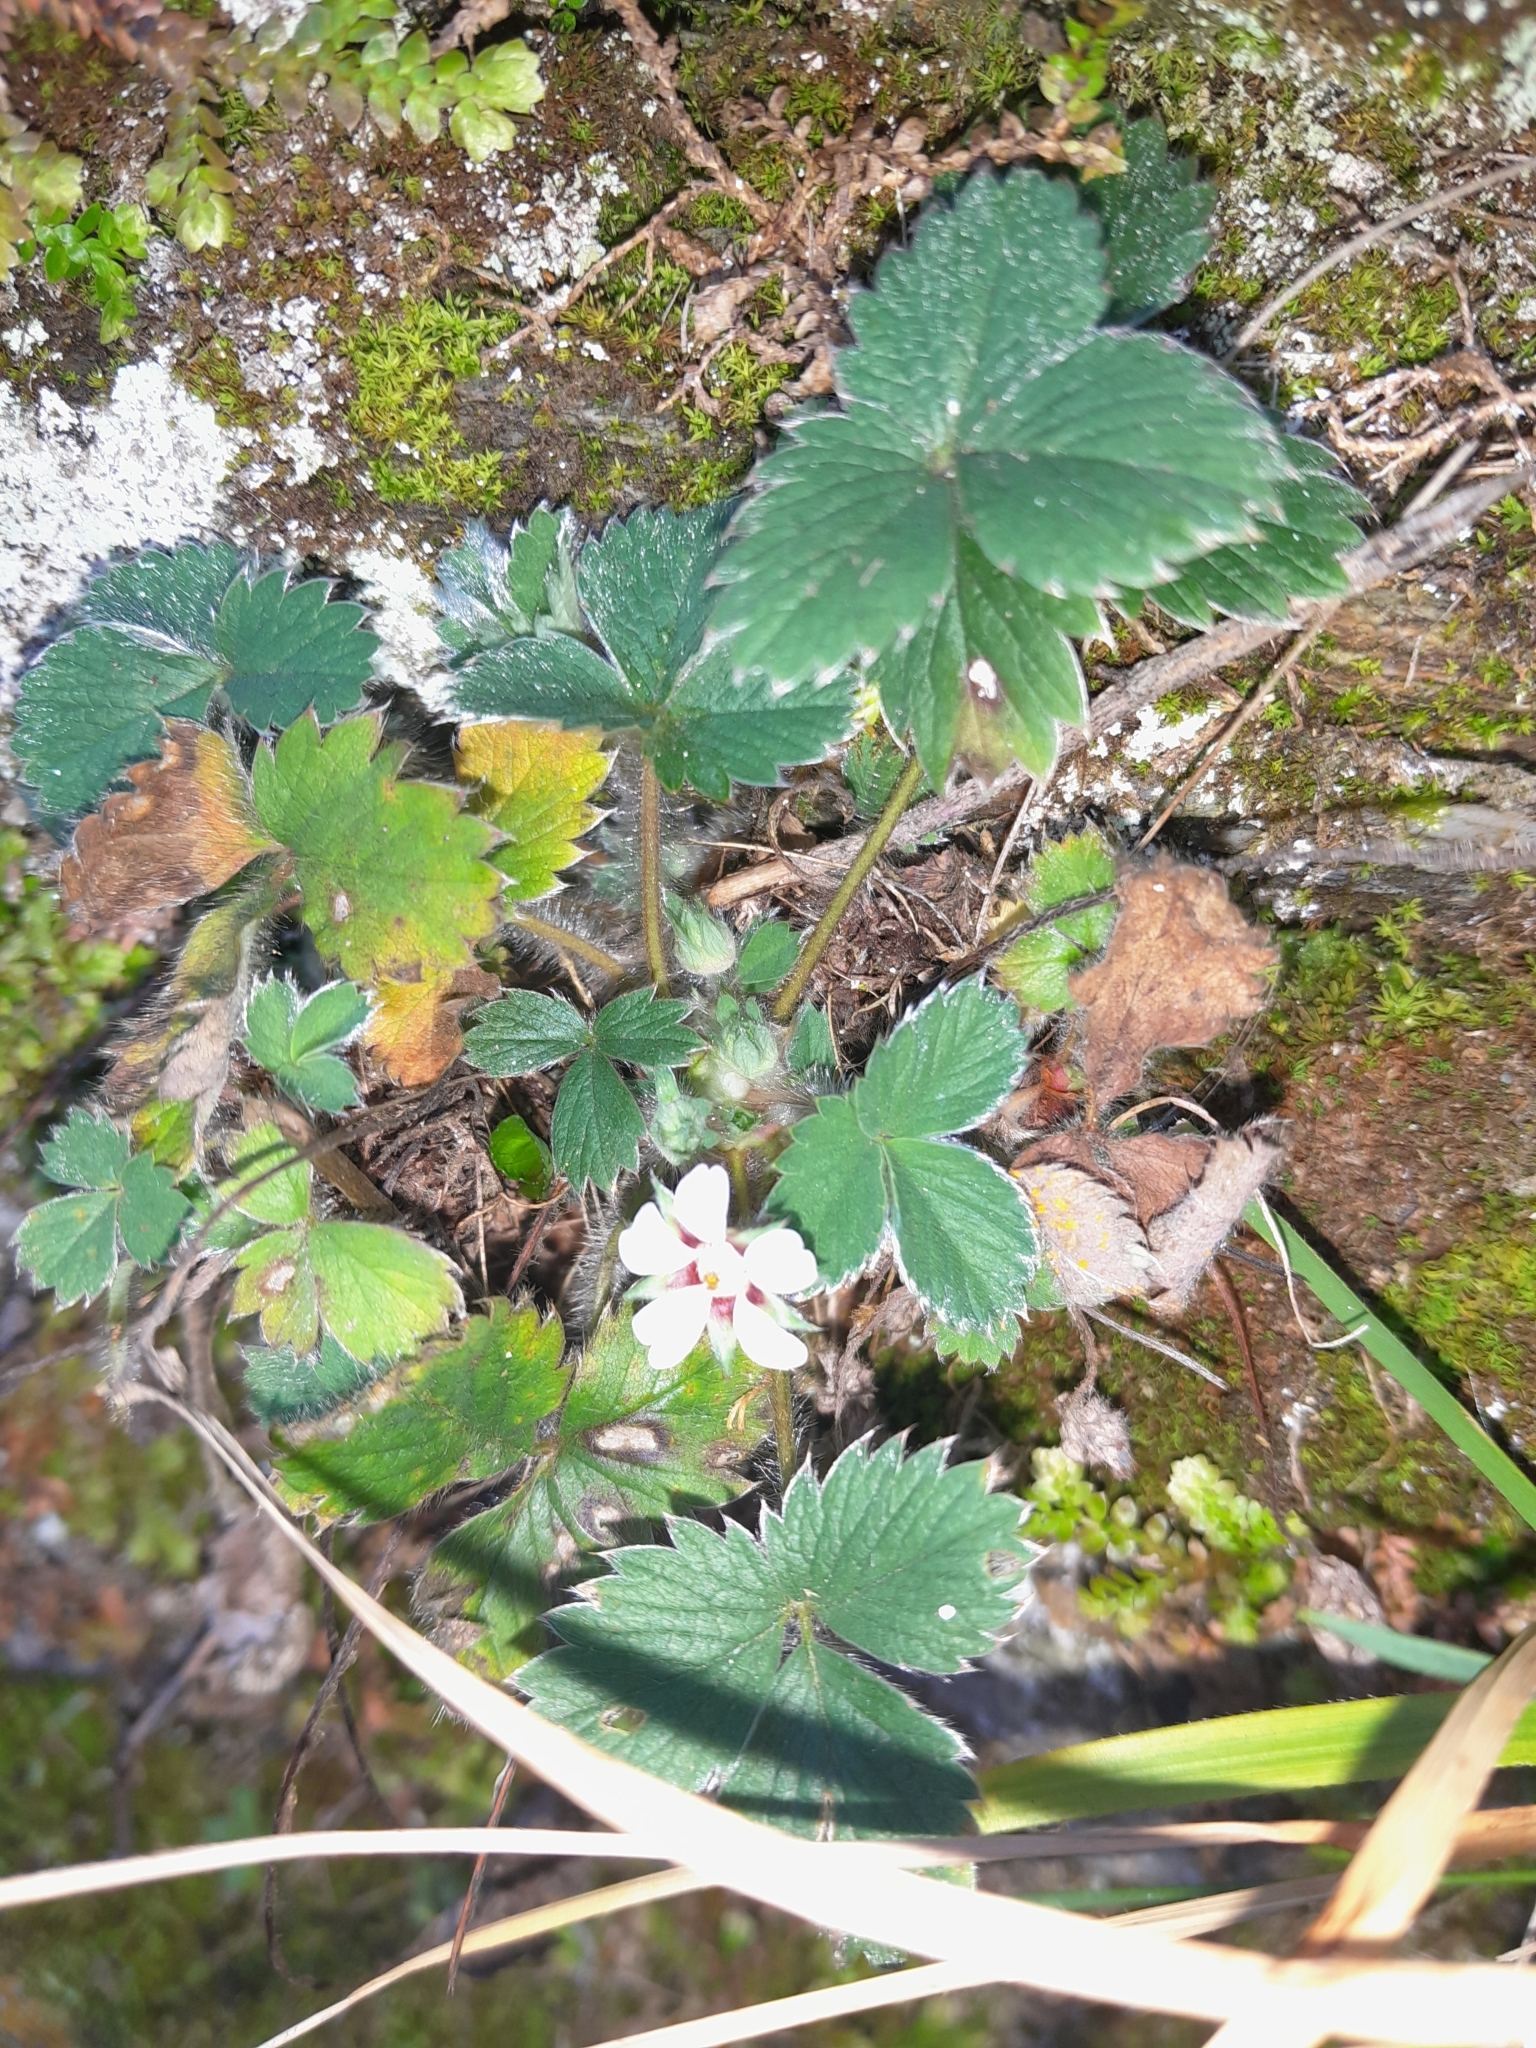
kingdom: Plantae
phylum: Tracheophyta
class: Magnoliopsida
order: Rosales
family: Rosaceae
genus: Potentilla
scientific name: Potentilla micrantha
